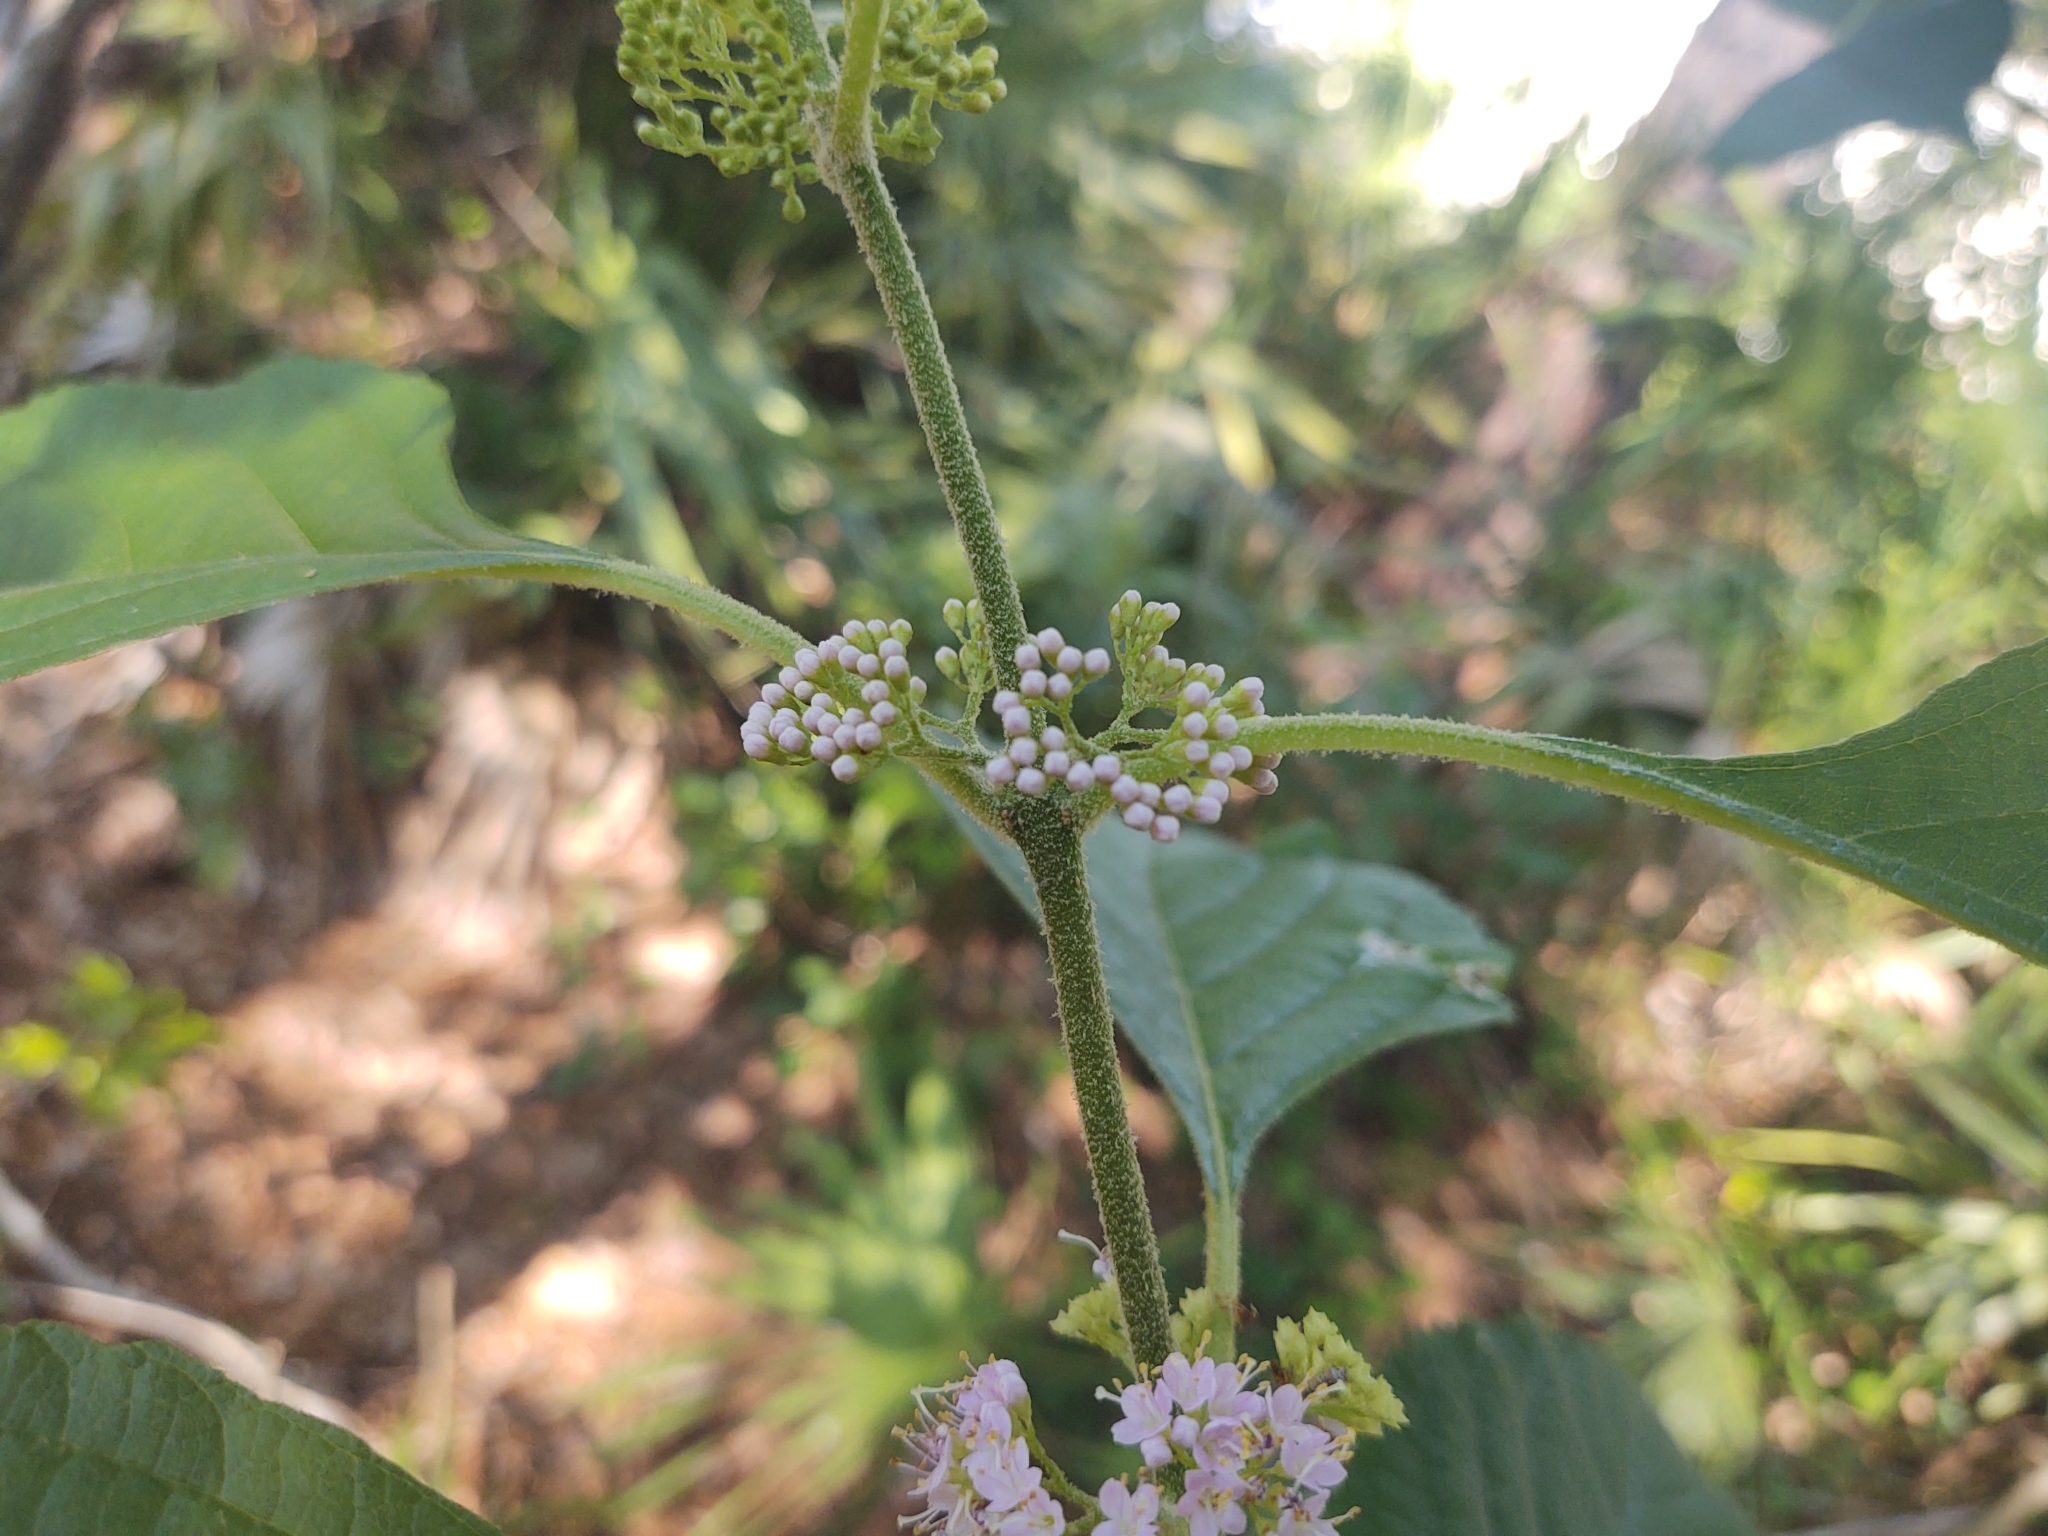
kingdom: Plantae
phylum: Tracheophyta
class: Magnoliopsida
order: Lamiales
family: Lamiaceae
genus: Callicarpa
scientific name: Callicarpa americana
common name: American beautyberry
